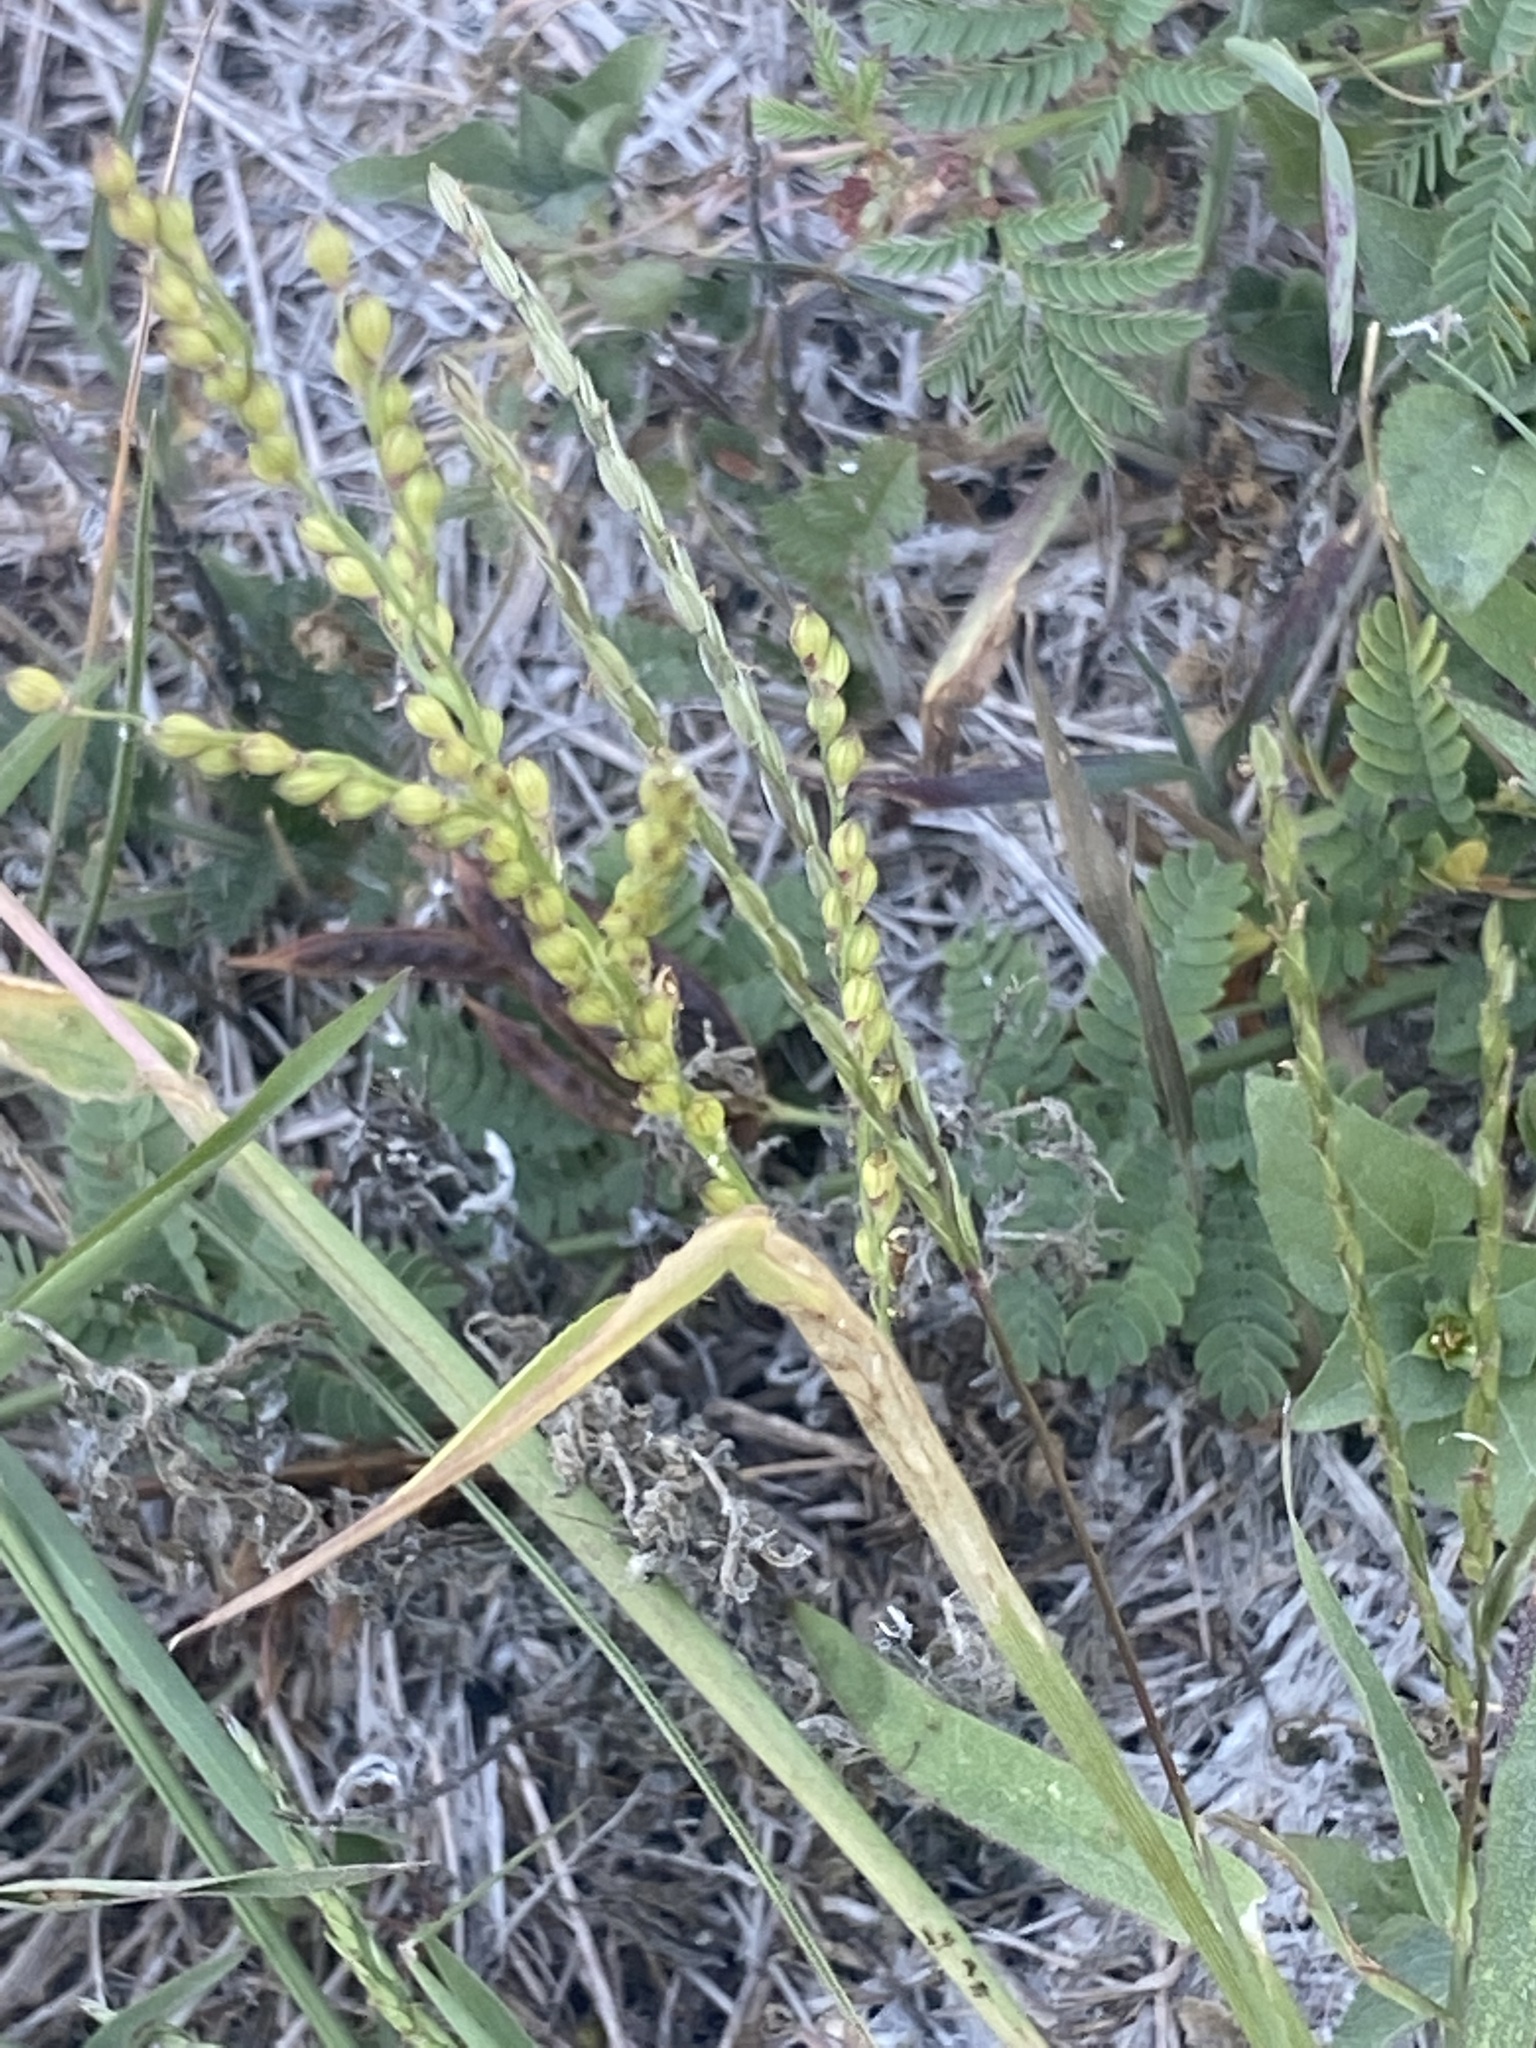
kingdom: Plantae
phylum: Tracheophyta
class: Liliopsida
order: Poales
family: Poaceae
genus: Urochloa
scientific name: Urochloa fusca
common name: Browntop signal grass
